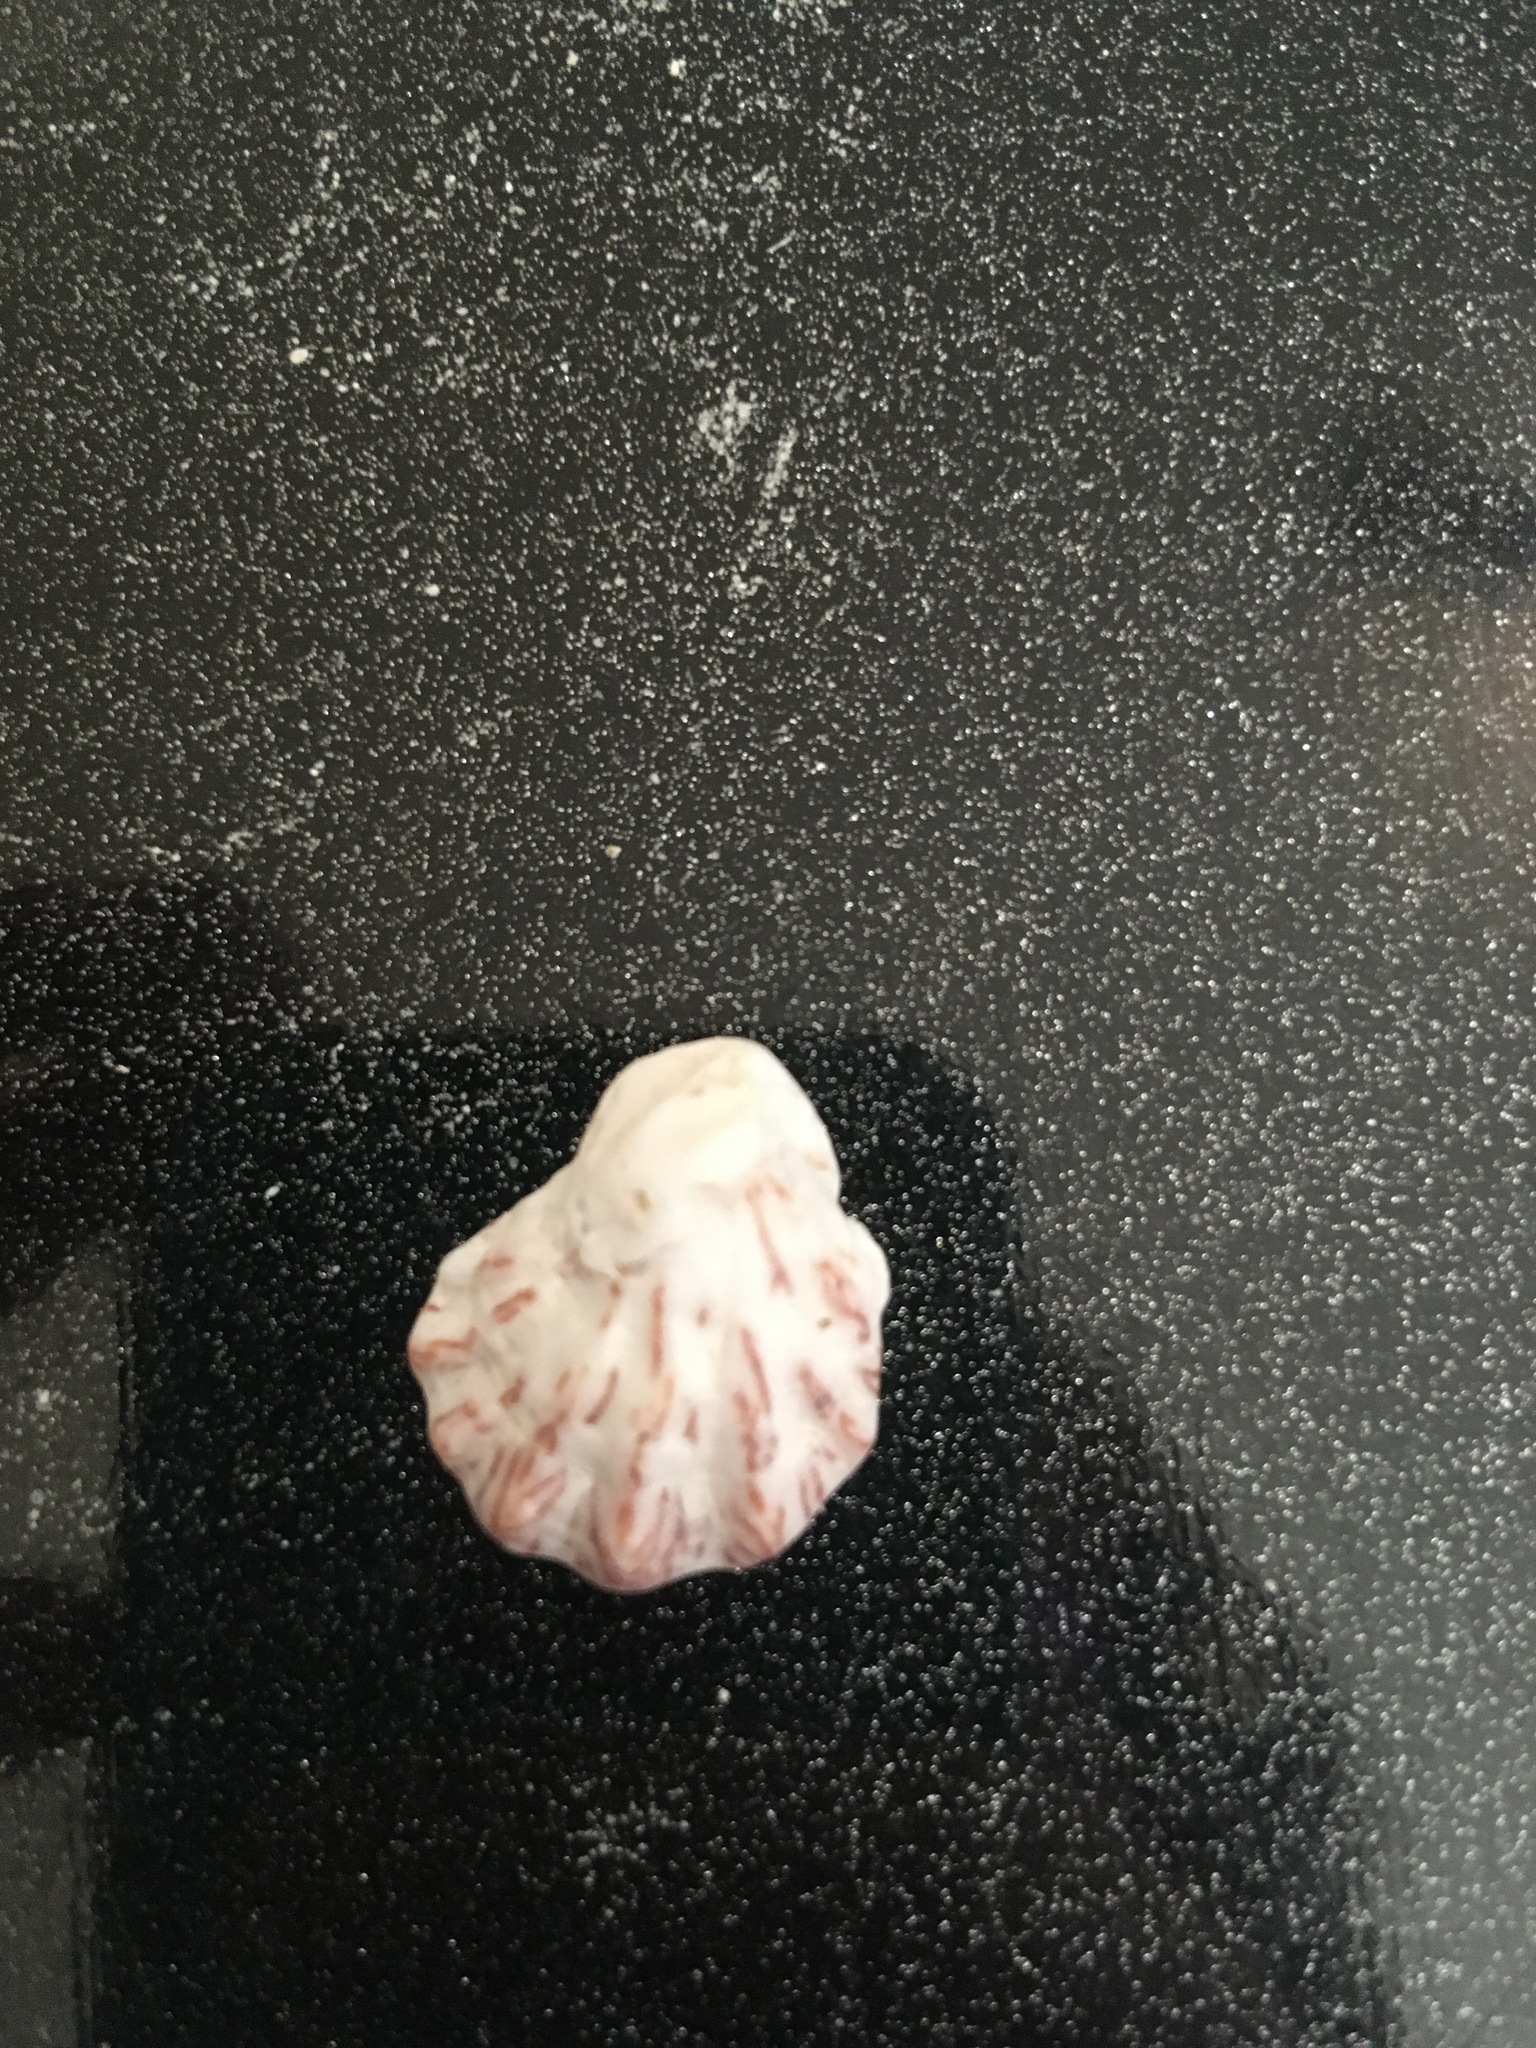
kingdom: Animalia
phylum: Mollusca
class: Bivalvia
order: Pectinida
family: Plicatulidae
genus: Plicatula
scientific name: Plicatula gibbosa
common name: Atlantic kitten's paw
